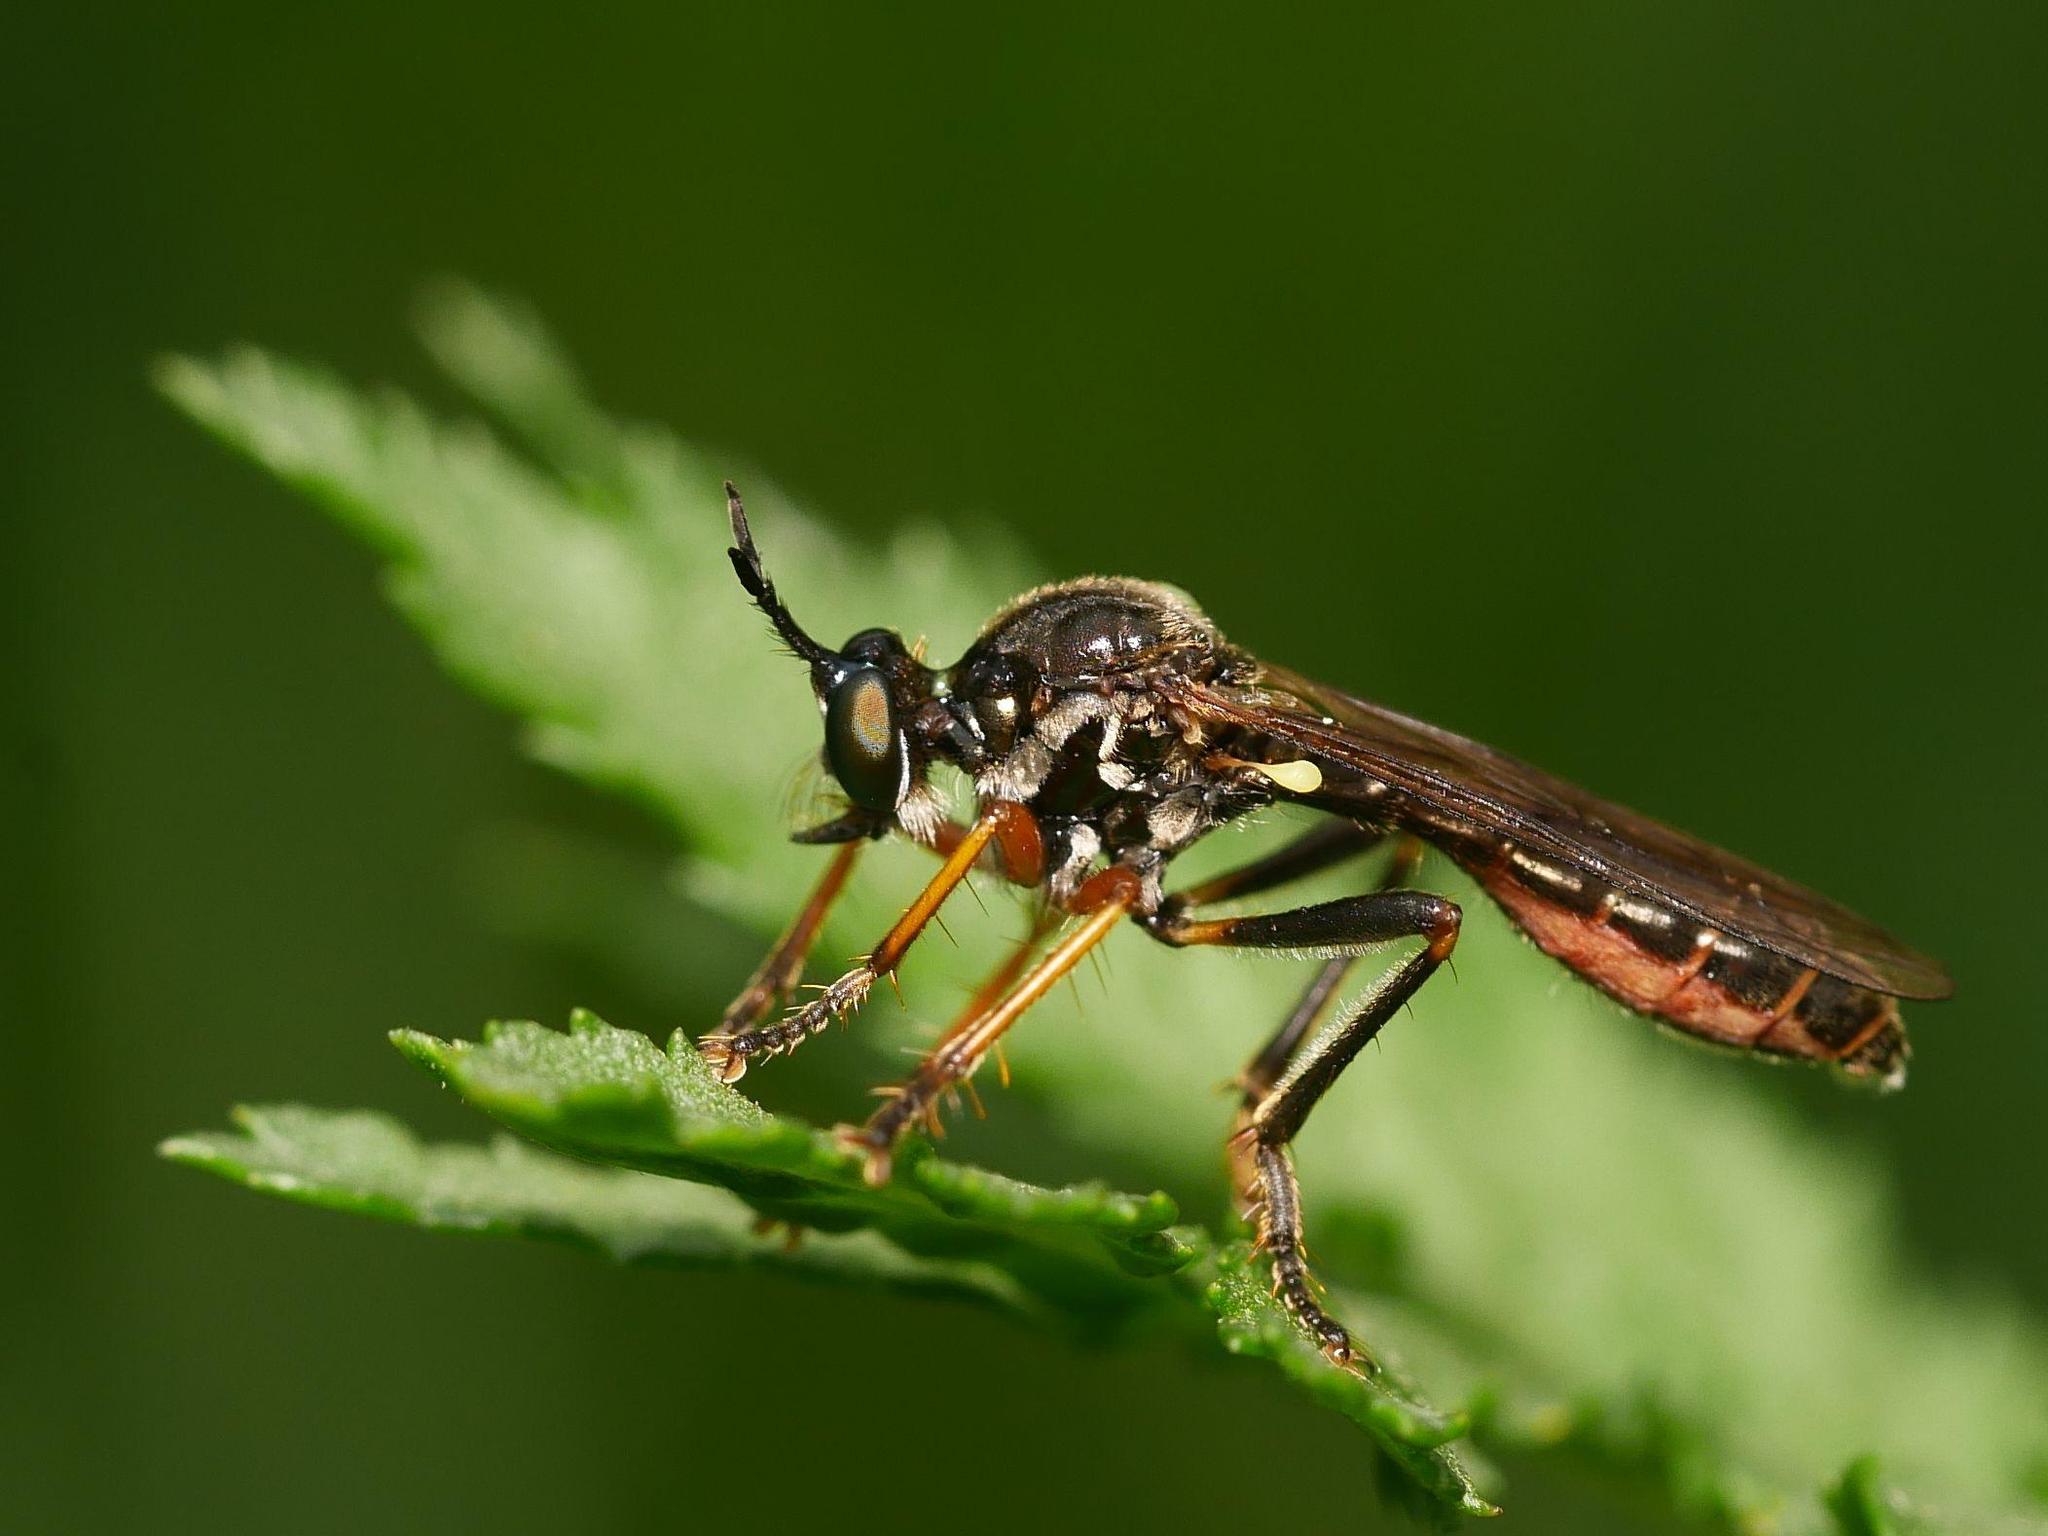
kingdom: Animalia
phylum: Arthropoda
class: Insecta
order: Diptera
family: Asilidae
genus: Dioctria
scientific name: Dioctria rufipes
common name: Common red-legged robberfly
